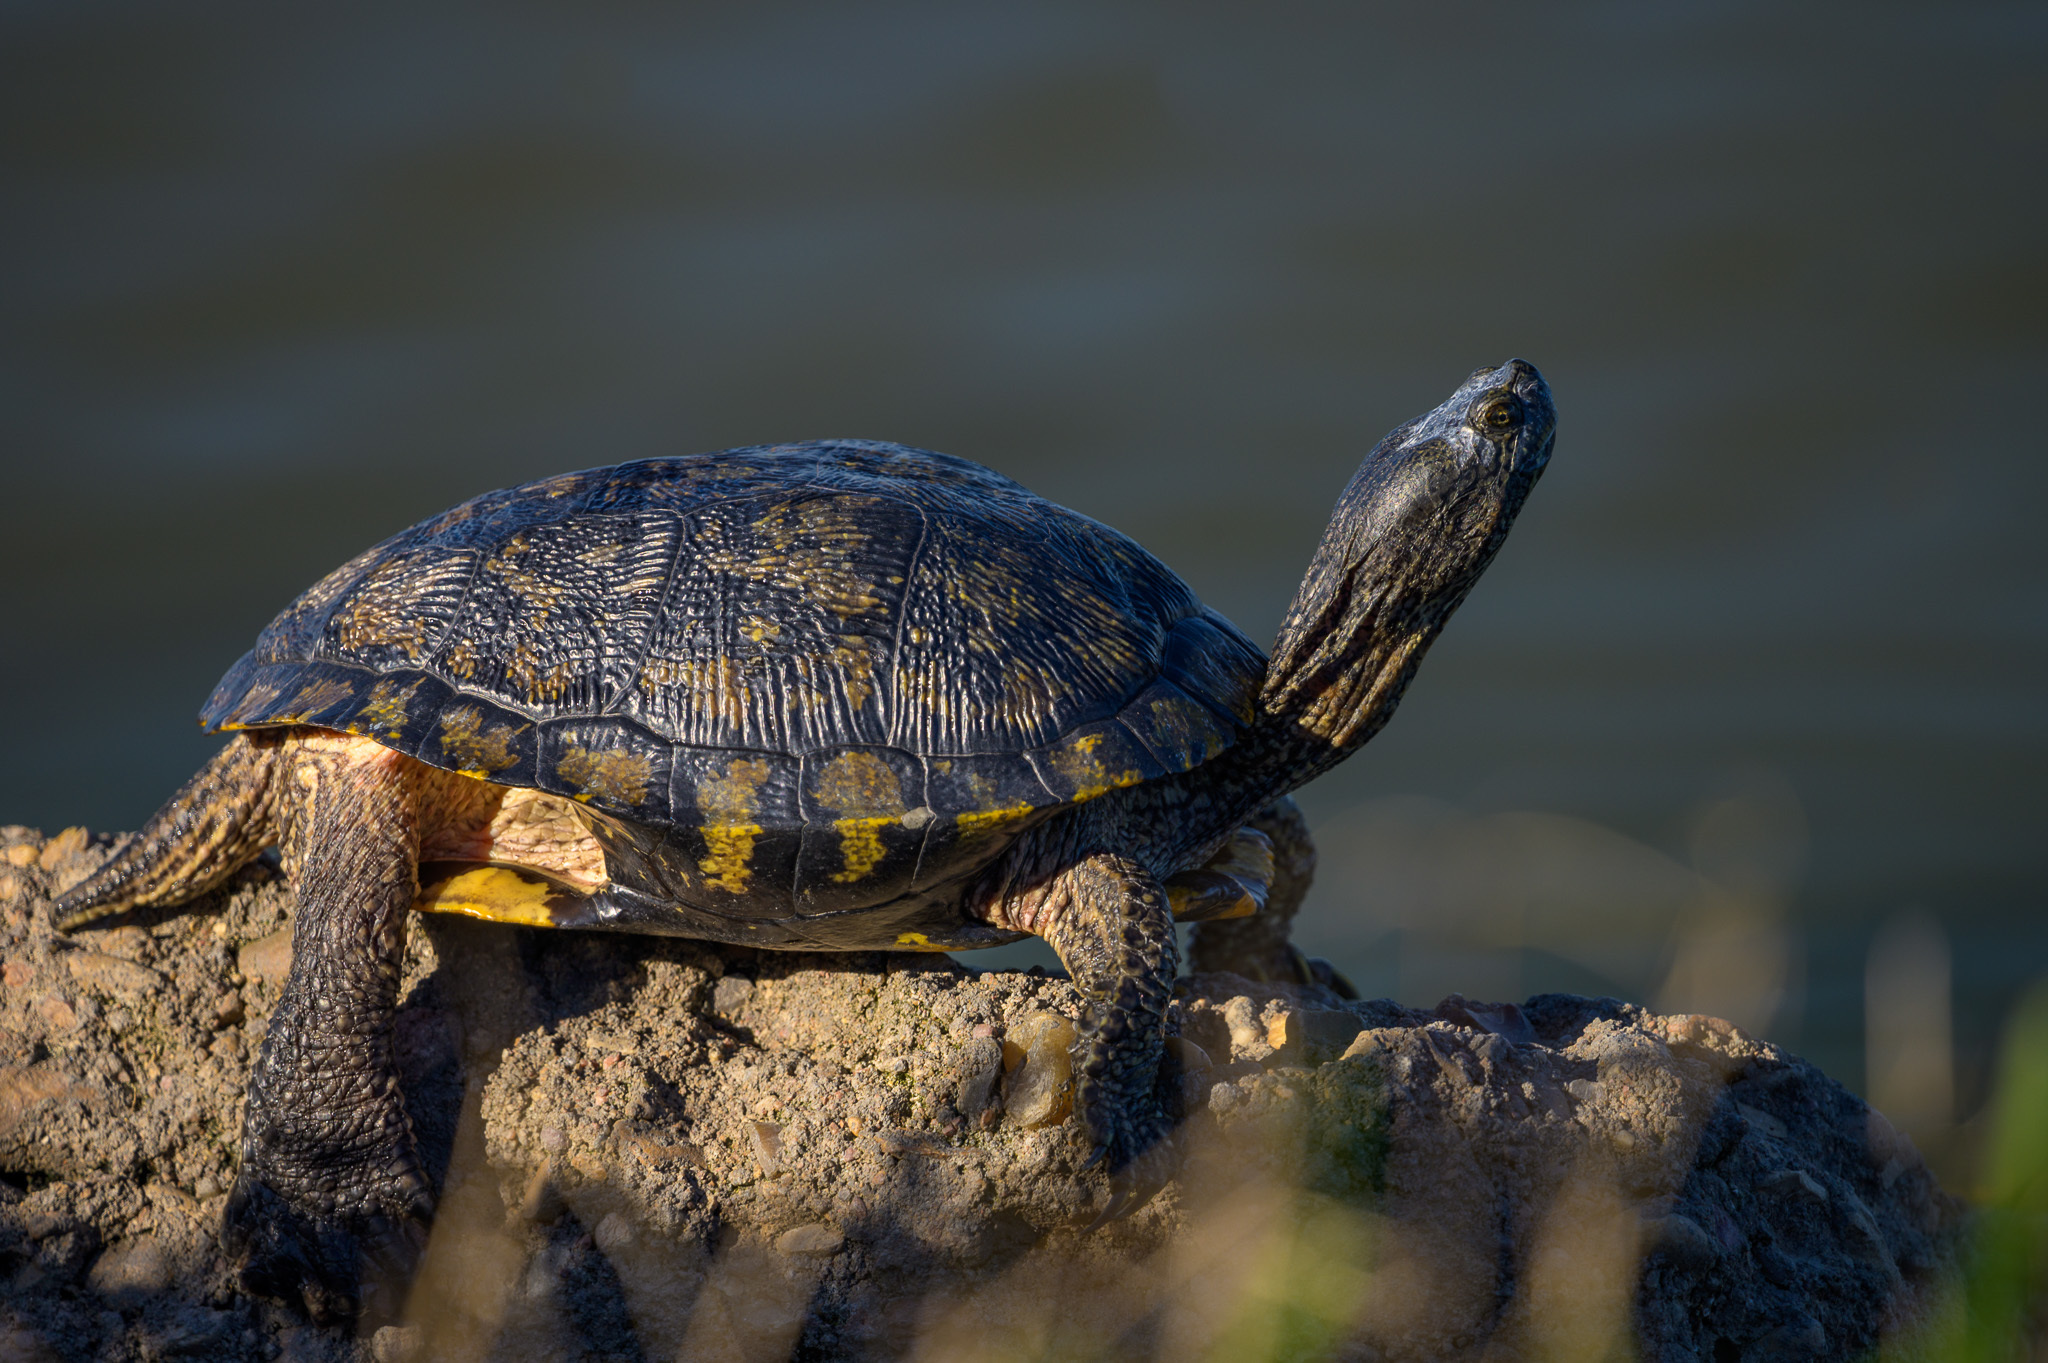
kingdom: Animalia
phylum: Chordata
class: Testudines
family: Emydidae
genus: Trachemys
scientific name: Trachemys scripta
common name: Slider
